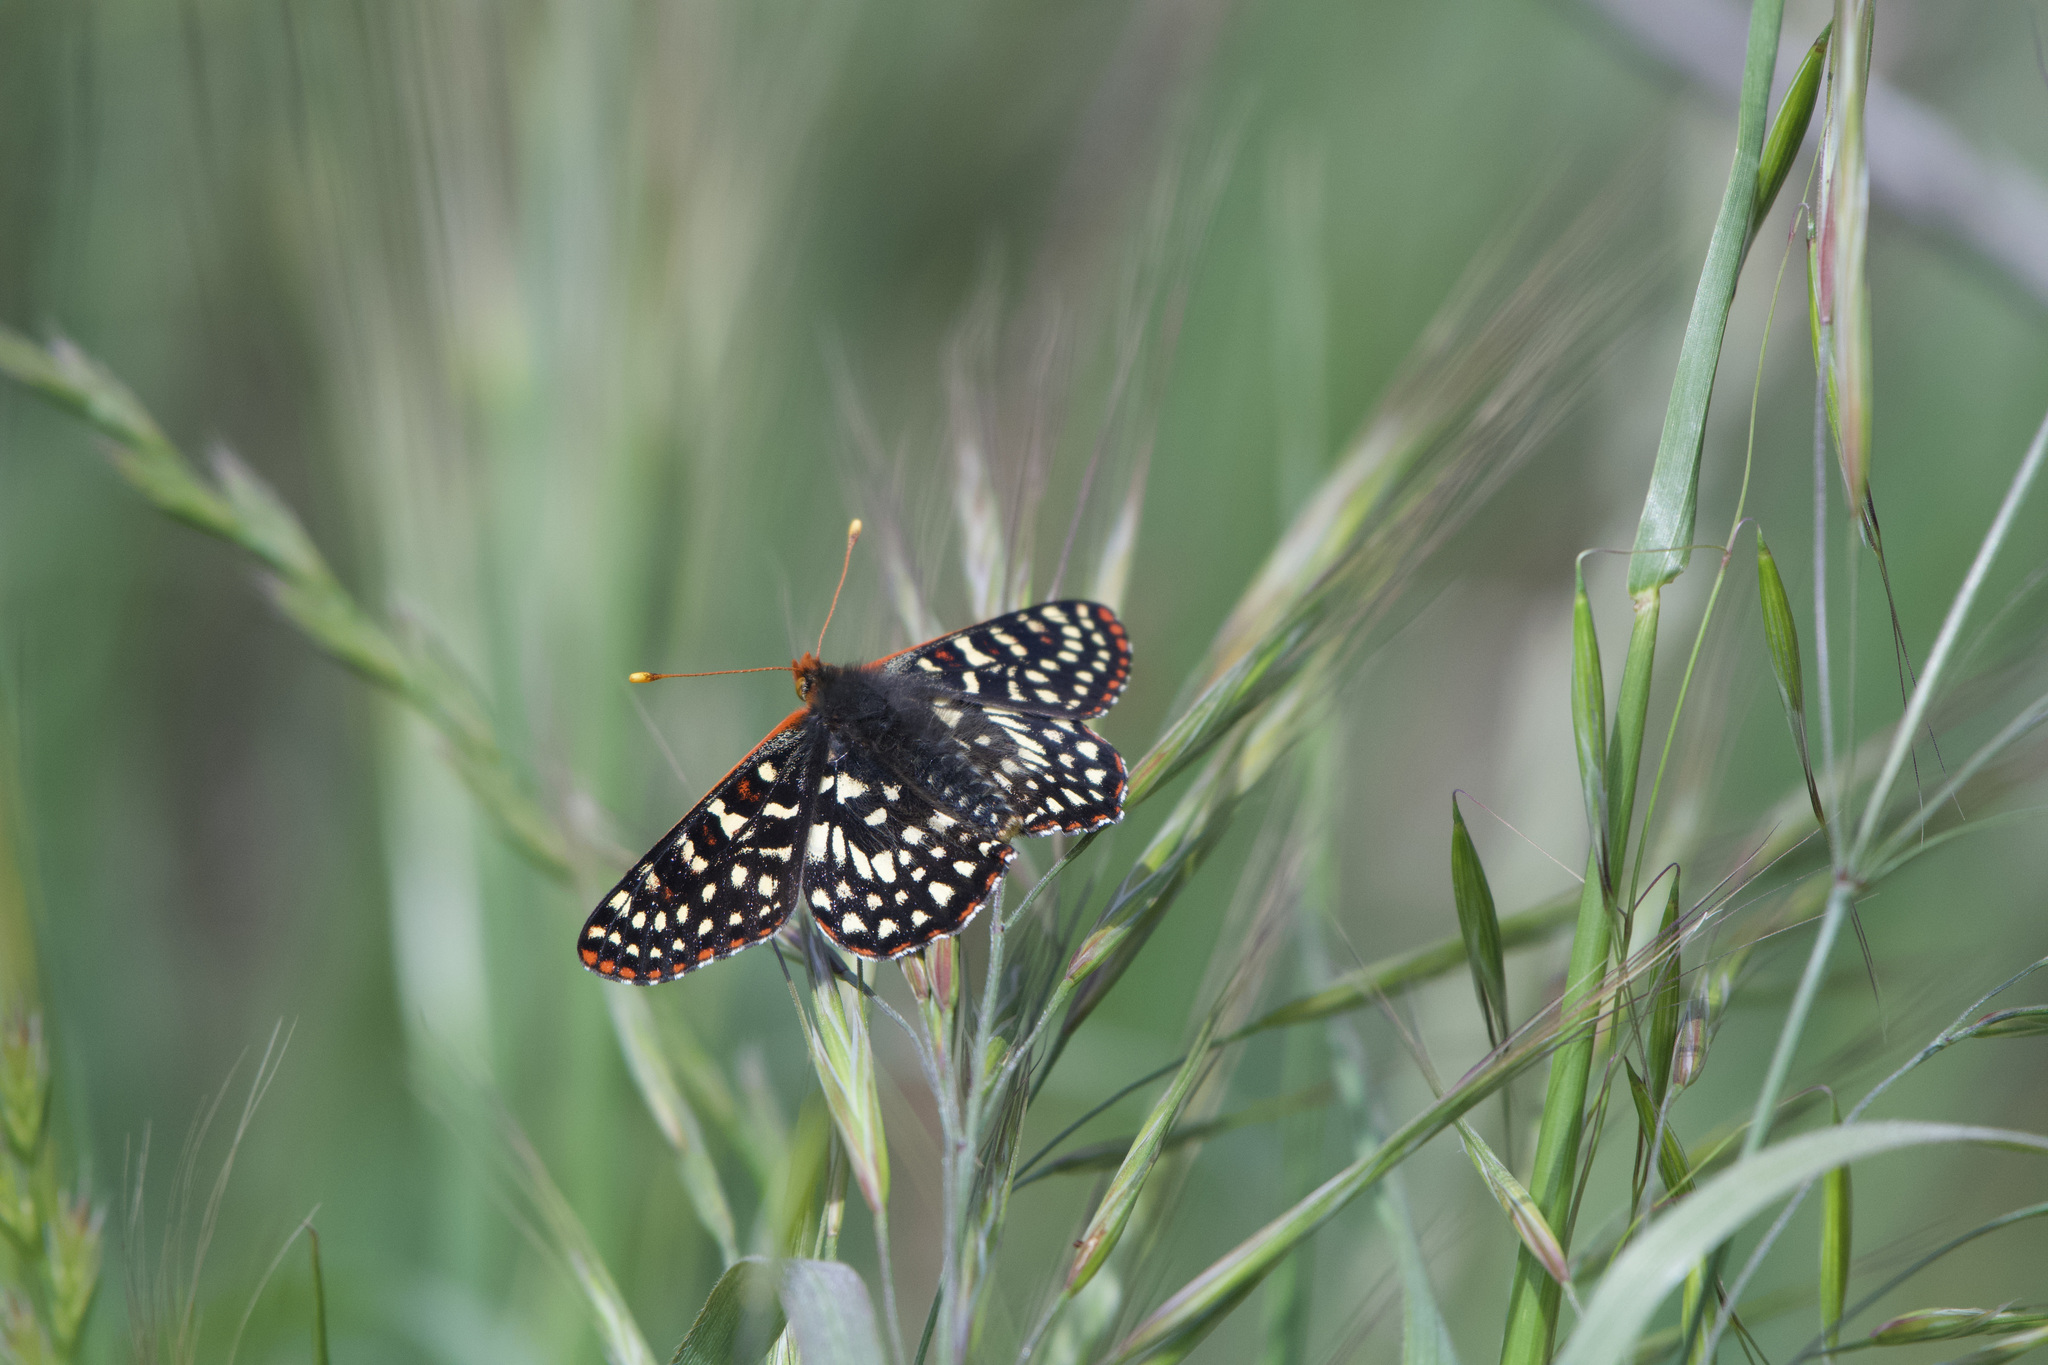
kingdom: Animalia
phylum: Arthropoda
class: Insecta
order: Lepidoptera
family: Nymphalidae
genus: Occidryas
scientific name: Occidryas chalcedona
